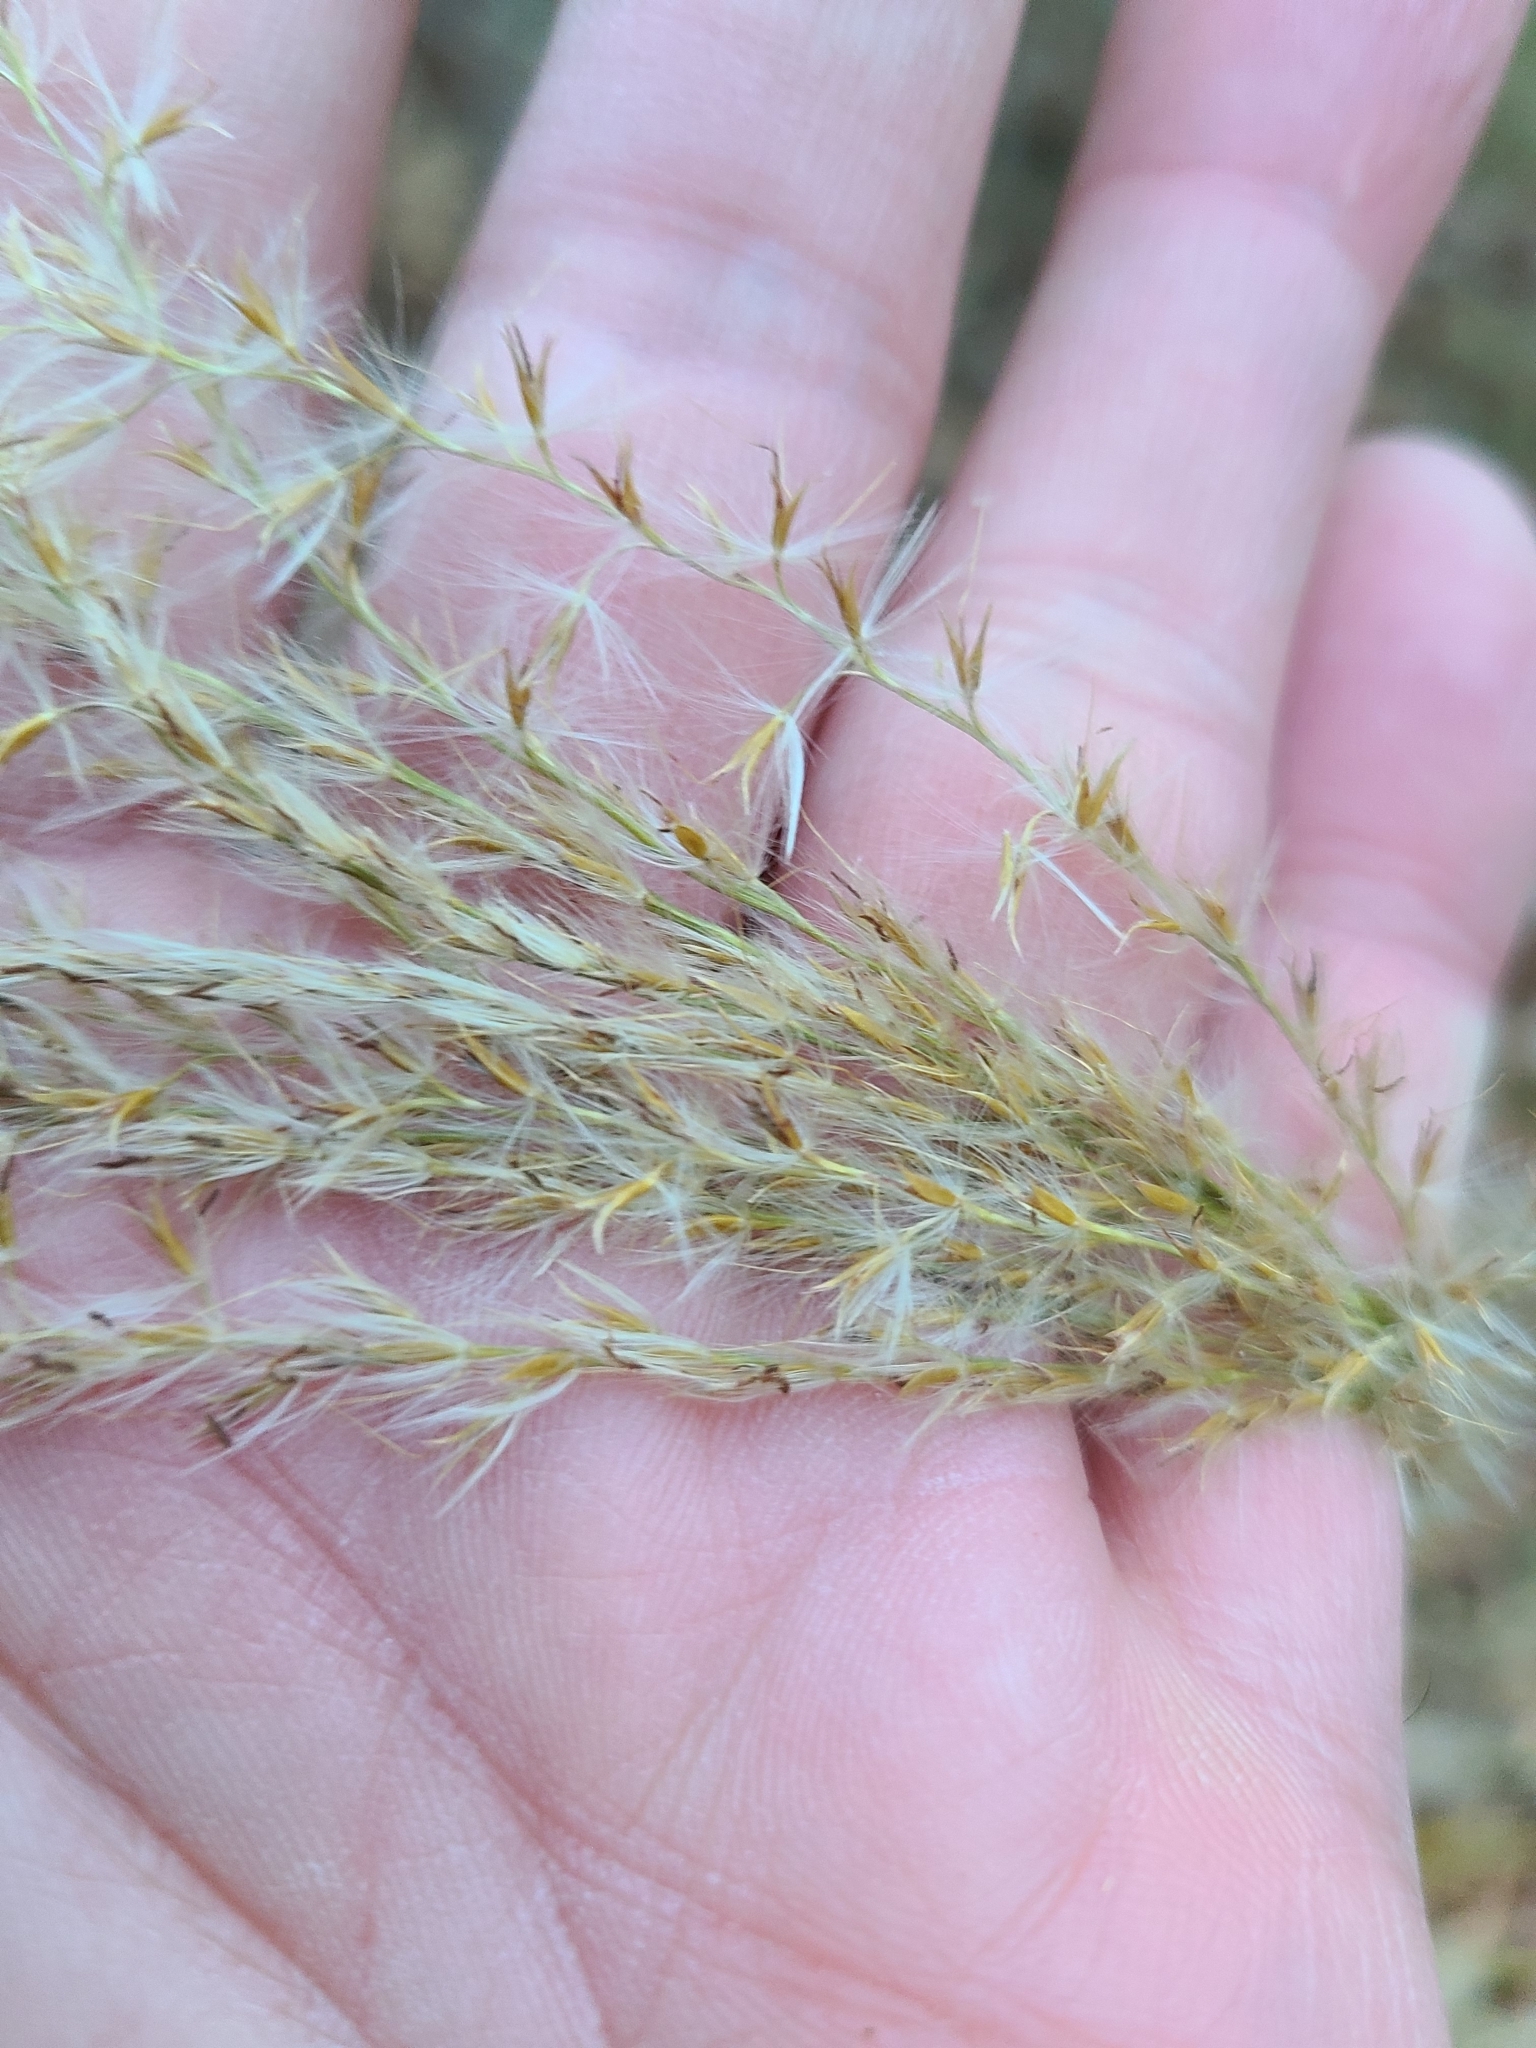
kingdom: Plantae
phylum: Tracheophyta
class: Liliopsida
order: Poales
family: Poaceae
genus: Miscanthus
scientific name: Miscanthus sinensis
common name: Chinese silvergrass
